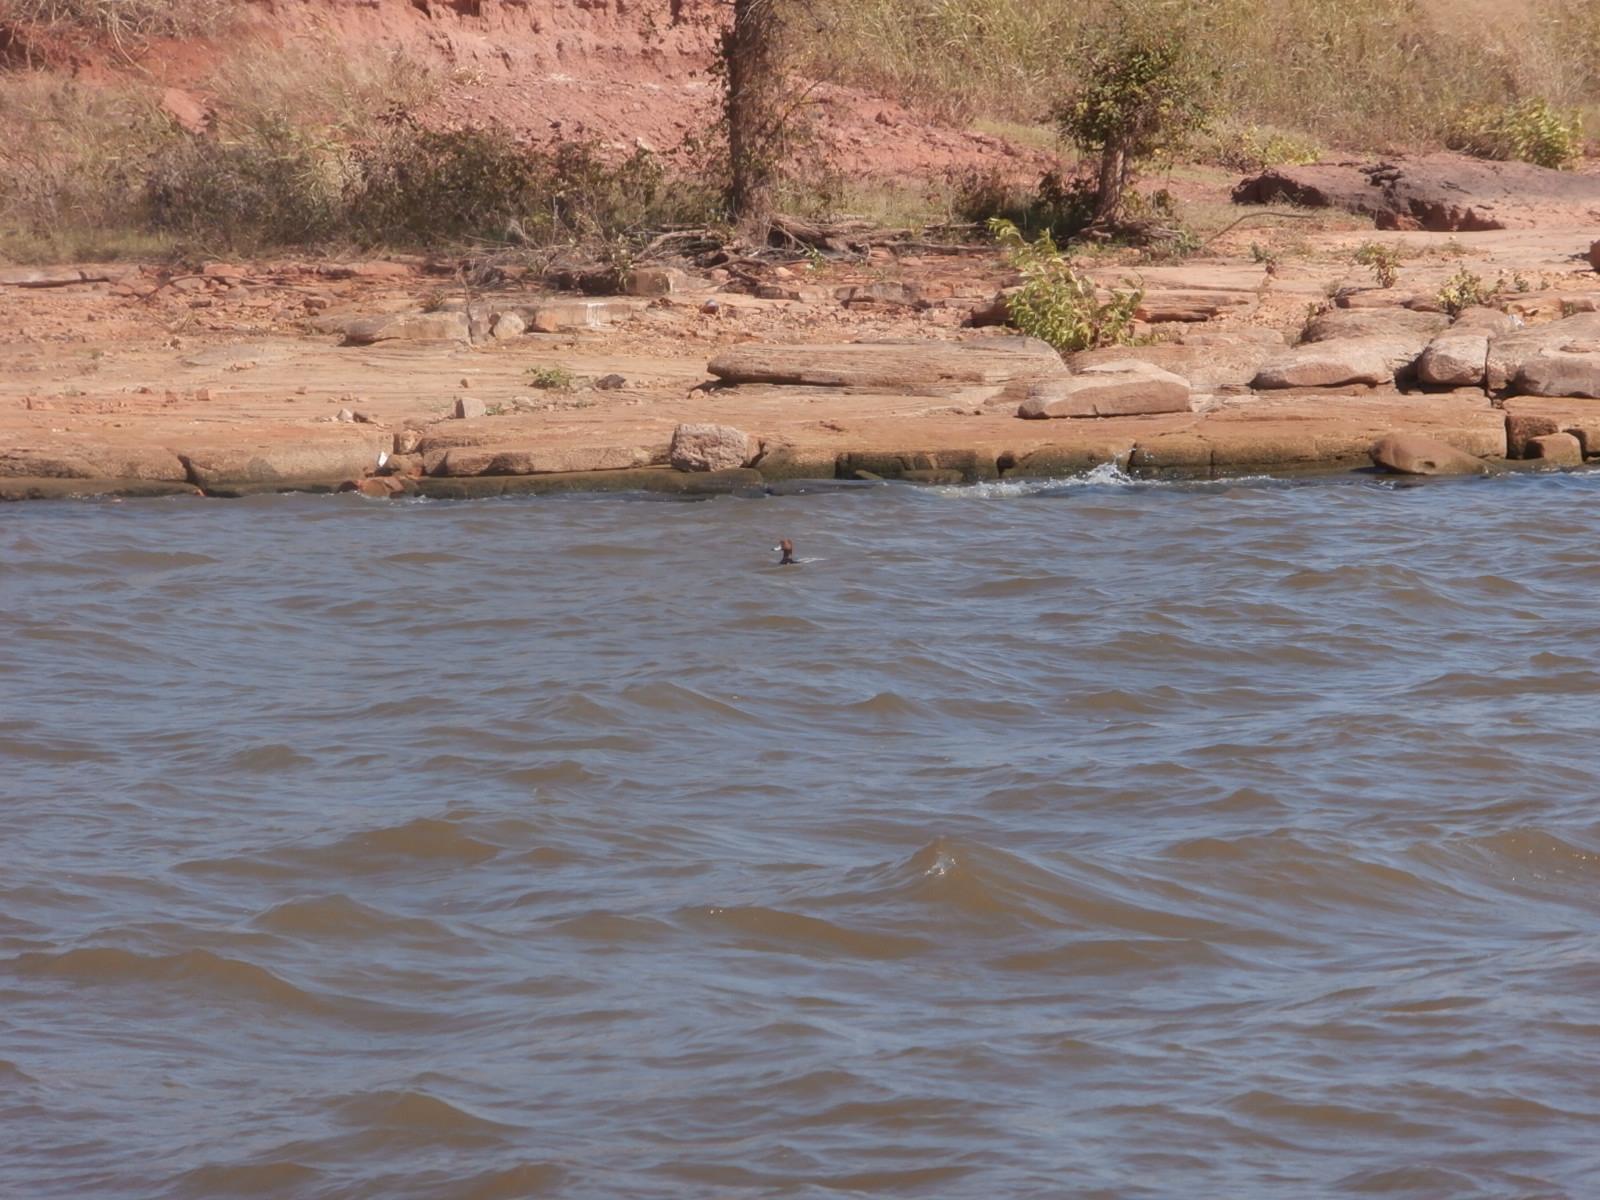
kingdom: Animalia
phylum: Chordata
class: Aves
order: Anseriformes
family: Anatidae
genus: Aythya
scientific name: Aythya americana
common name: Redhead
